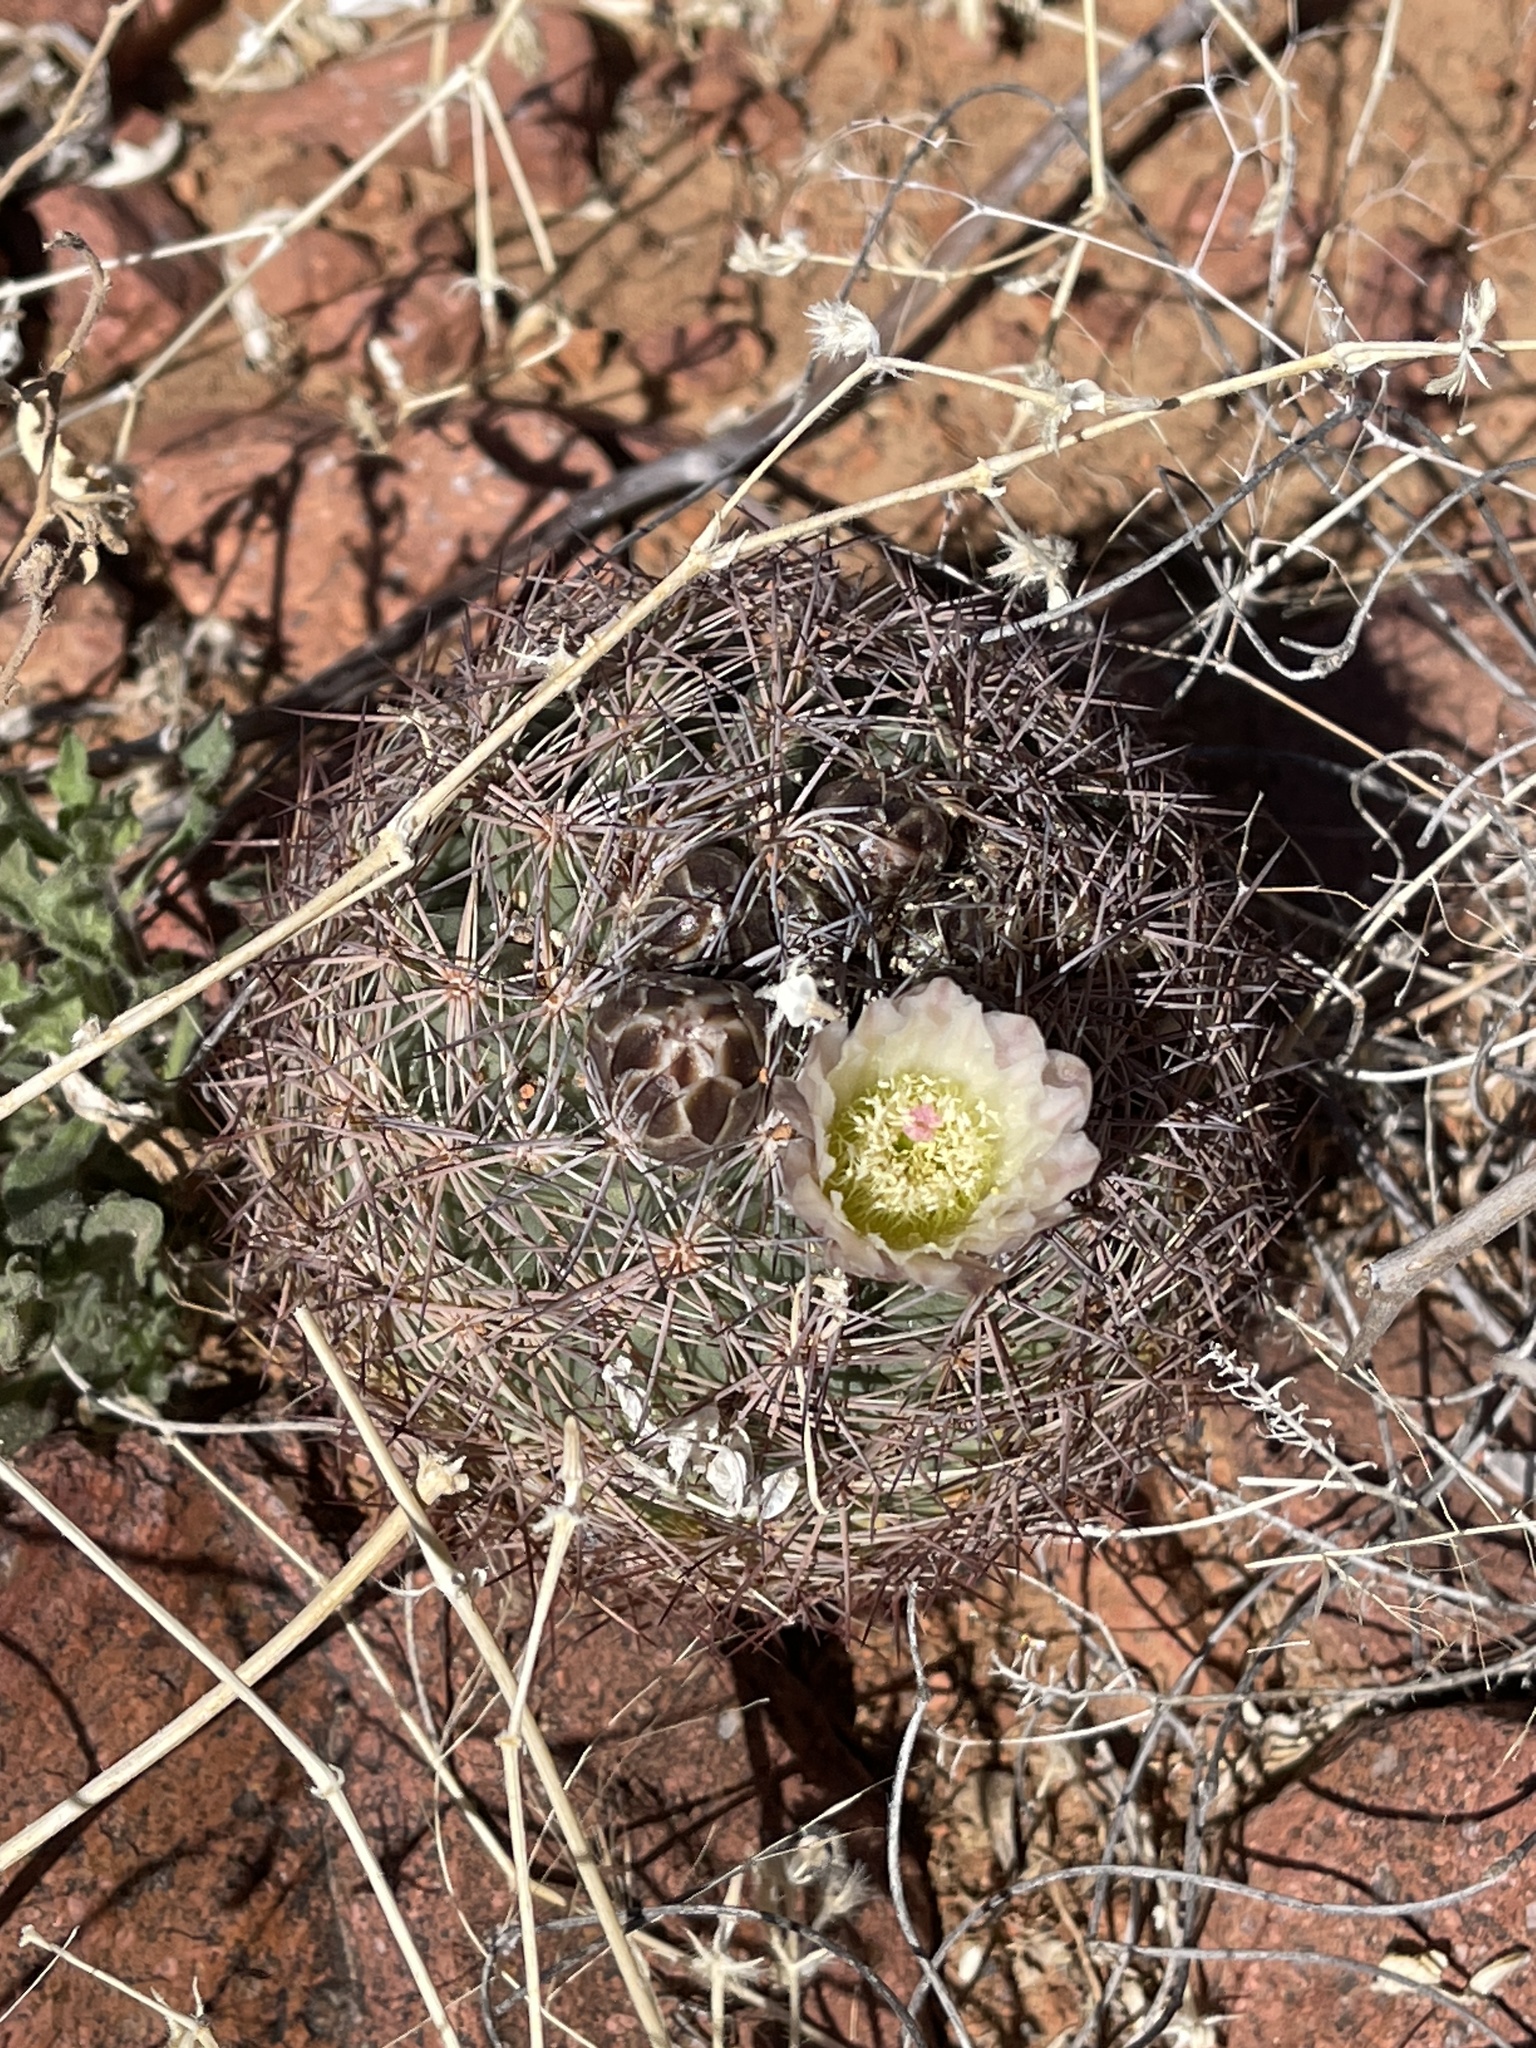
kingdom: Plantae
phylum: Tracheophyta
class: Magnoliopsida
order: Caryophyllales
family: Cactaceae
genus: Sclerocactus
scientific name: Sclerocactus intertextus
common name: White fish-hook cactus
